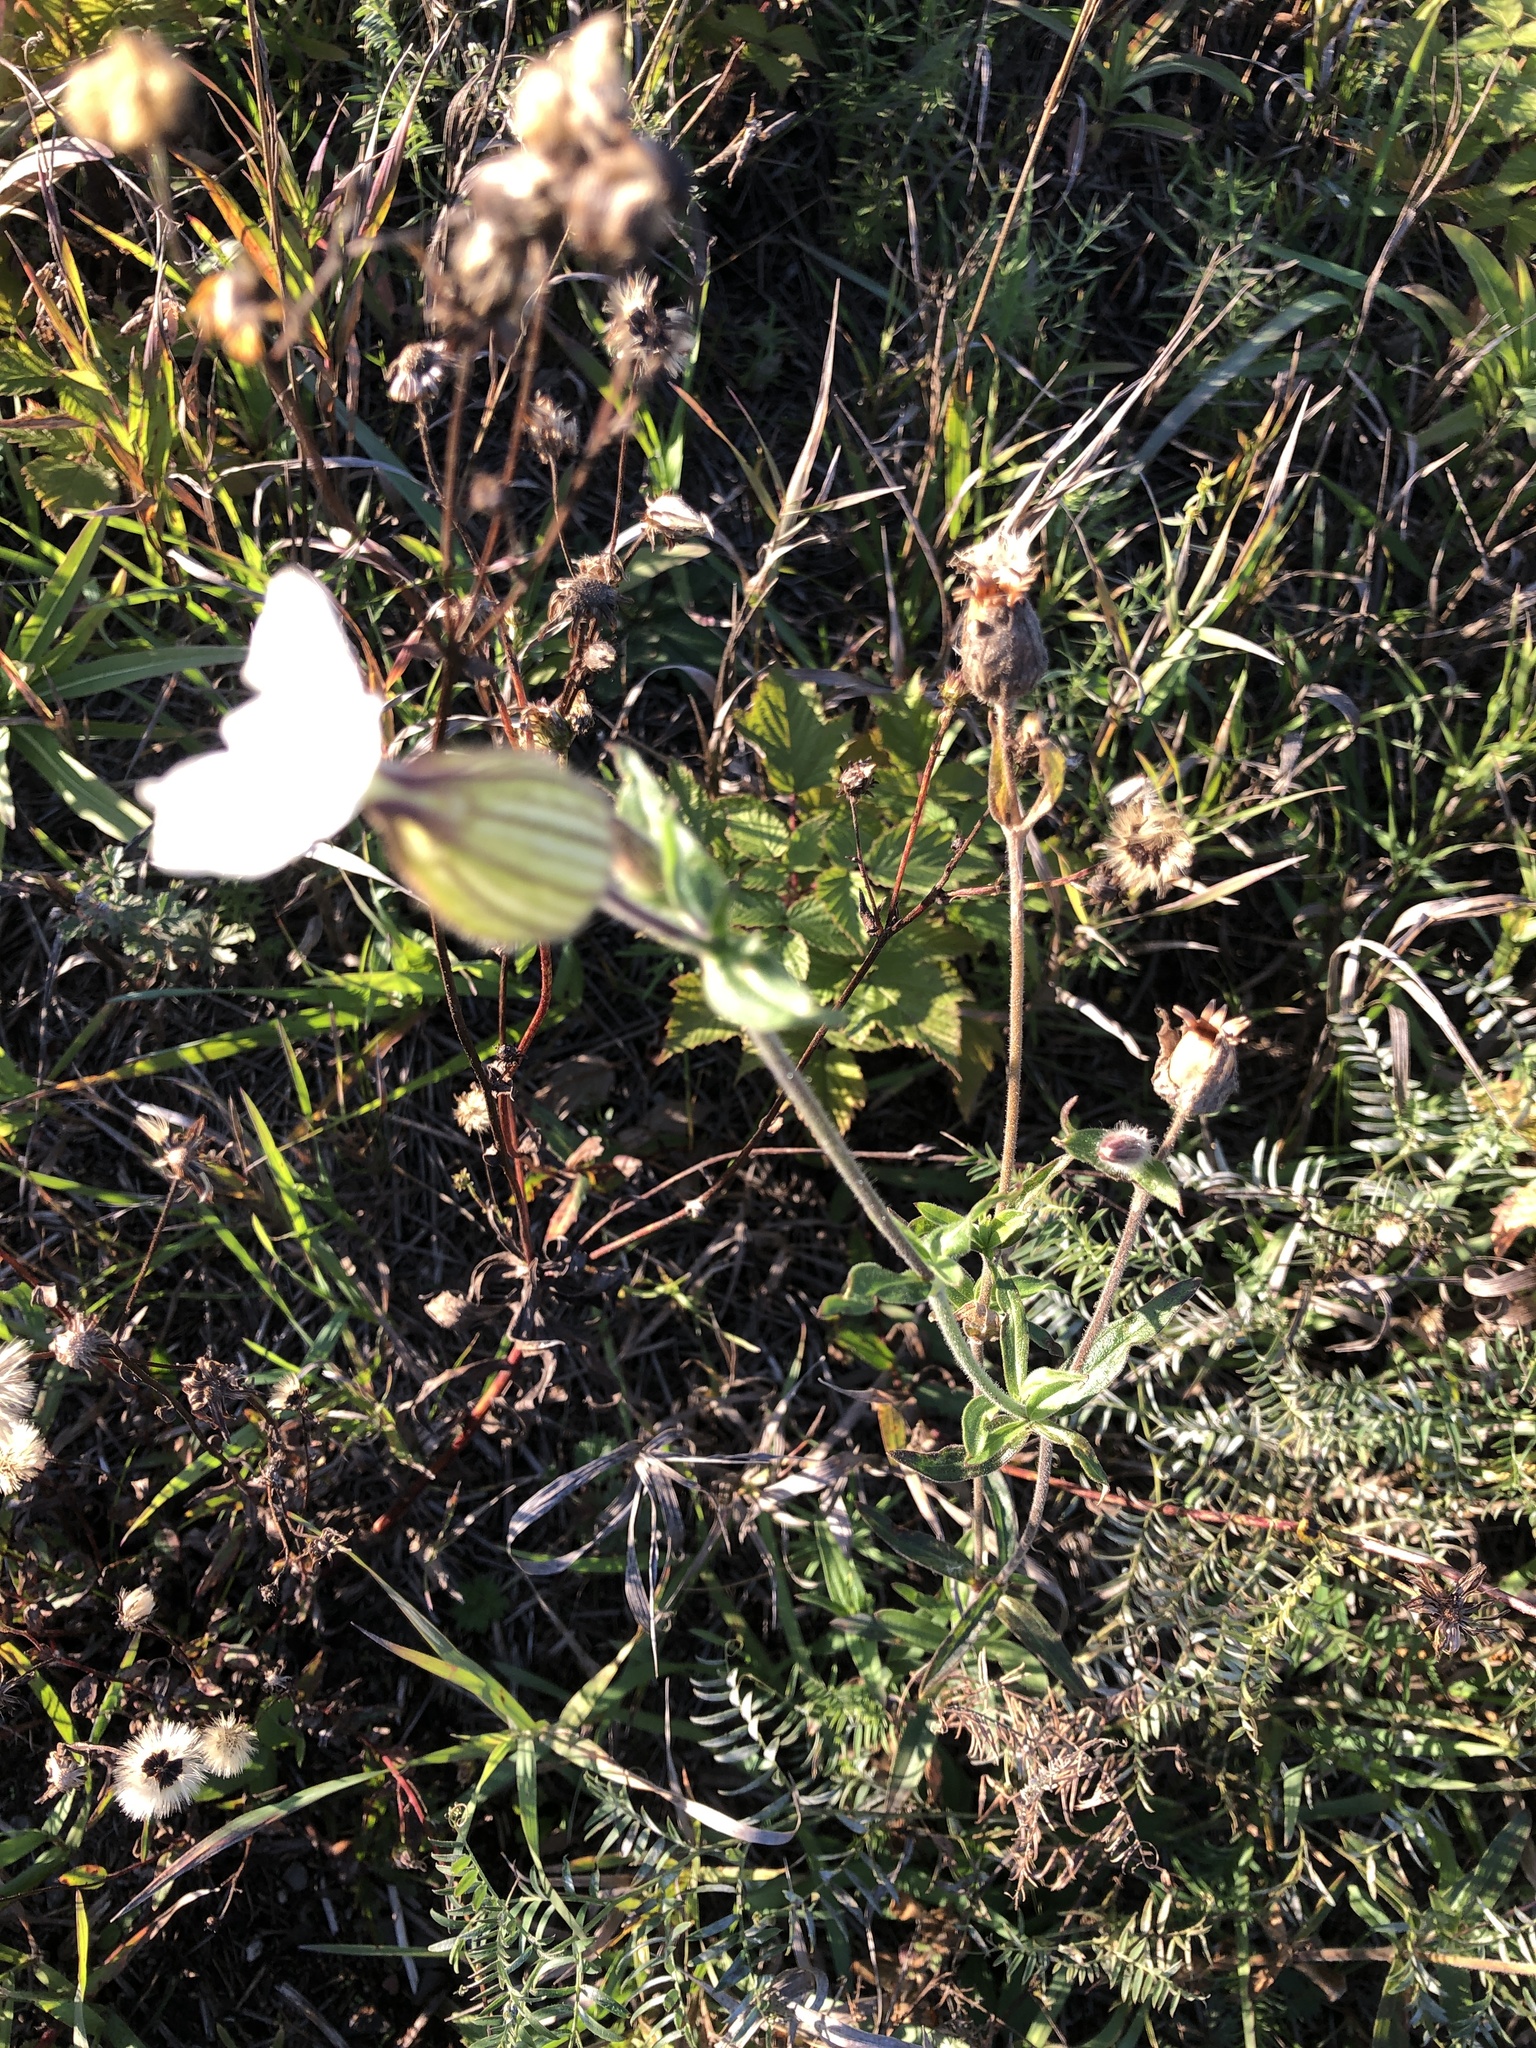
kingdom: Plantae
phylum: Tracheophyta
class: Magnoliopsida
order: Caryophyllales
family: Caryophyllaceae
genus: Silene
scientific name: Silene latifolia
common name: White campion
